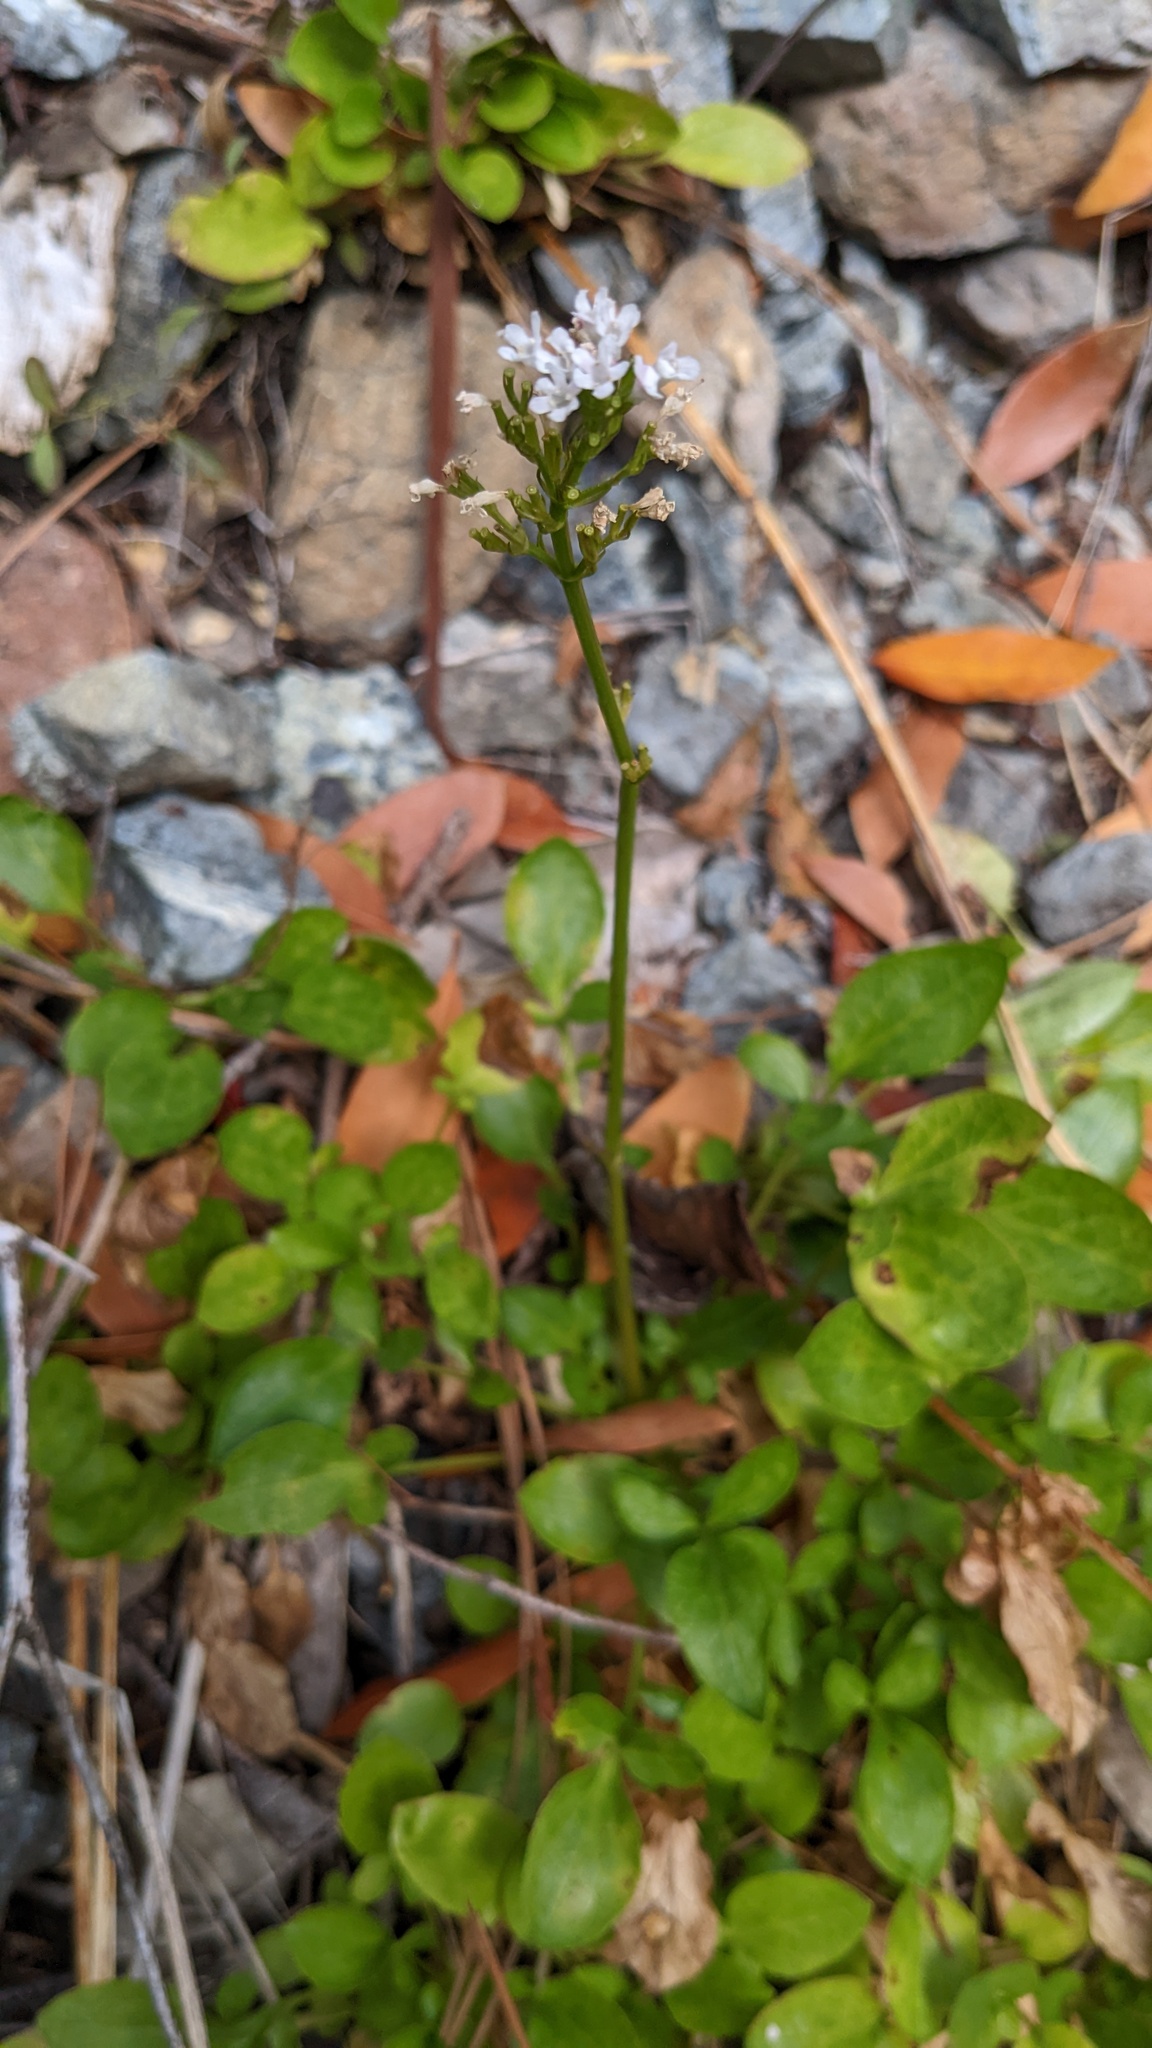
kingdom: Plantae
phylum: Tracheophyta
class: Magnoliopsida
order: Dipsacales
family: Caprifoliaceae
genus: Valeriana
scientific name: Valeriana scouleri
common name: Scouler's valerian
